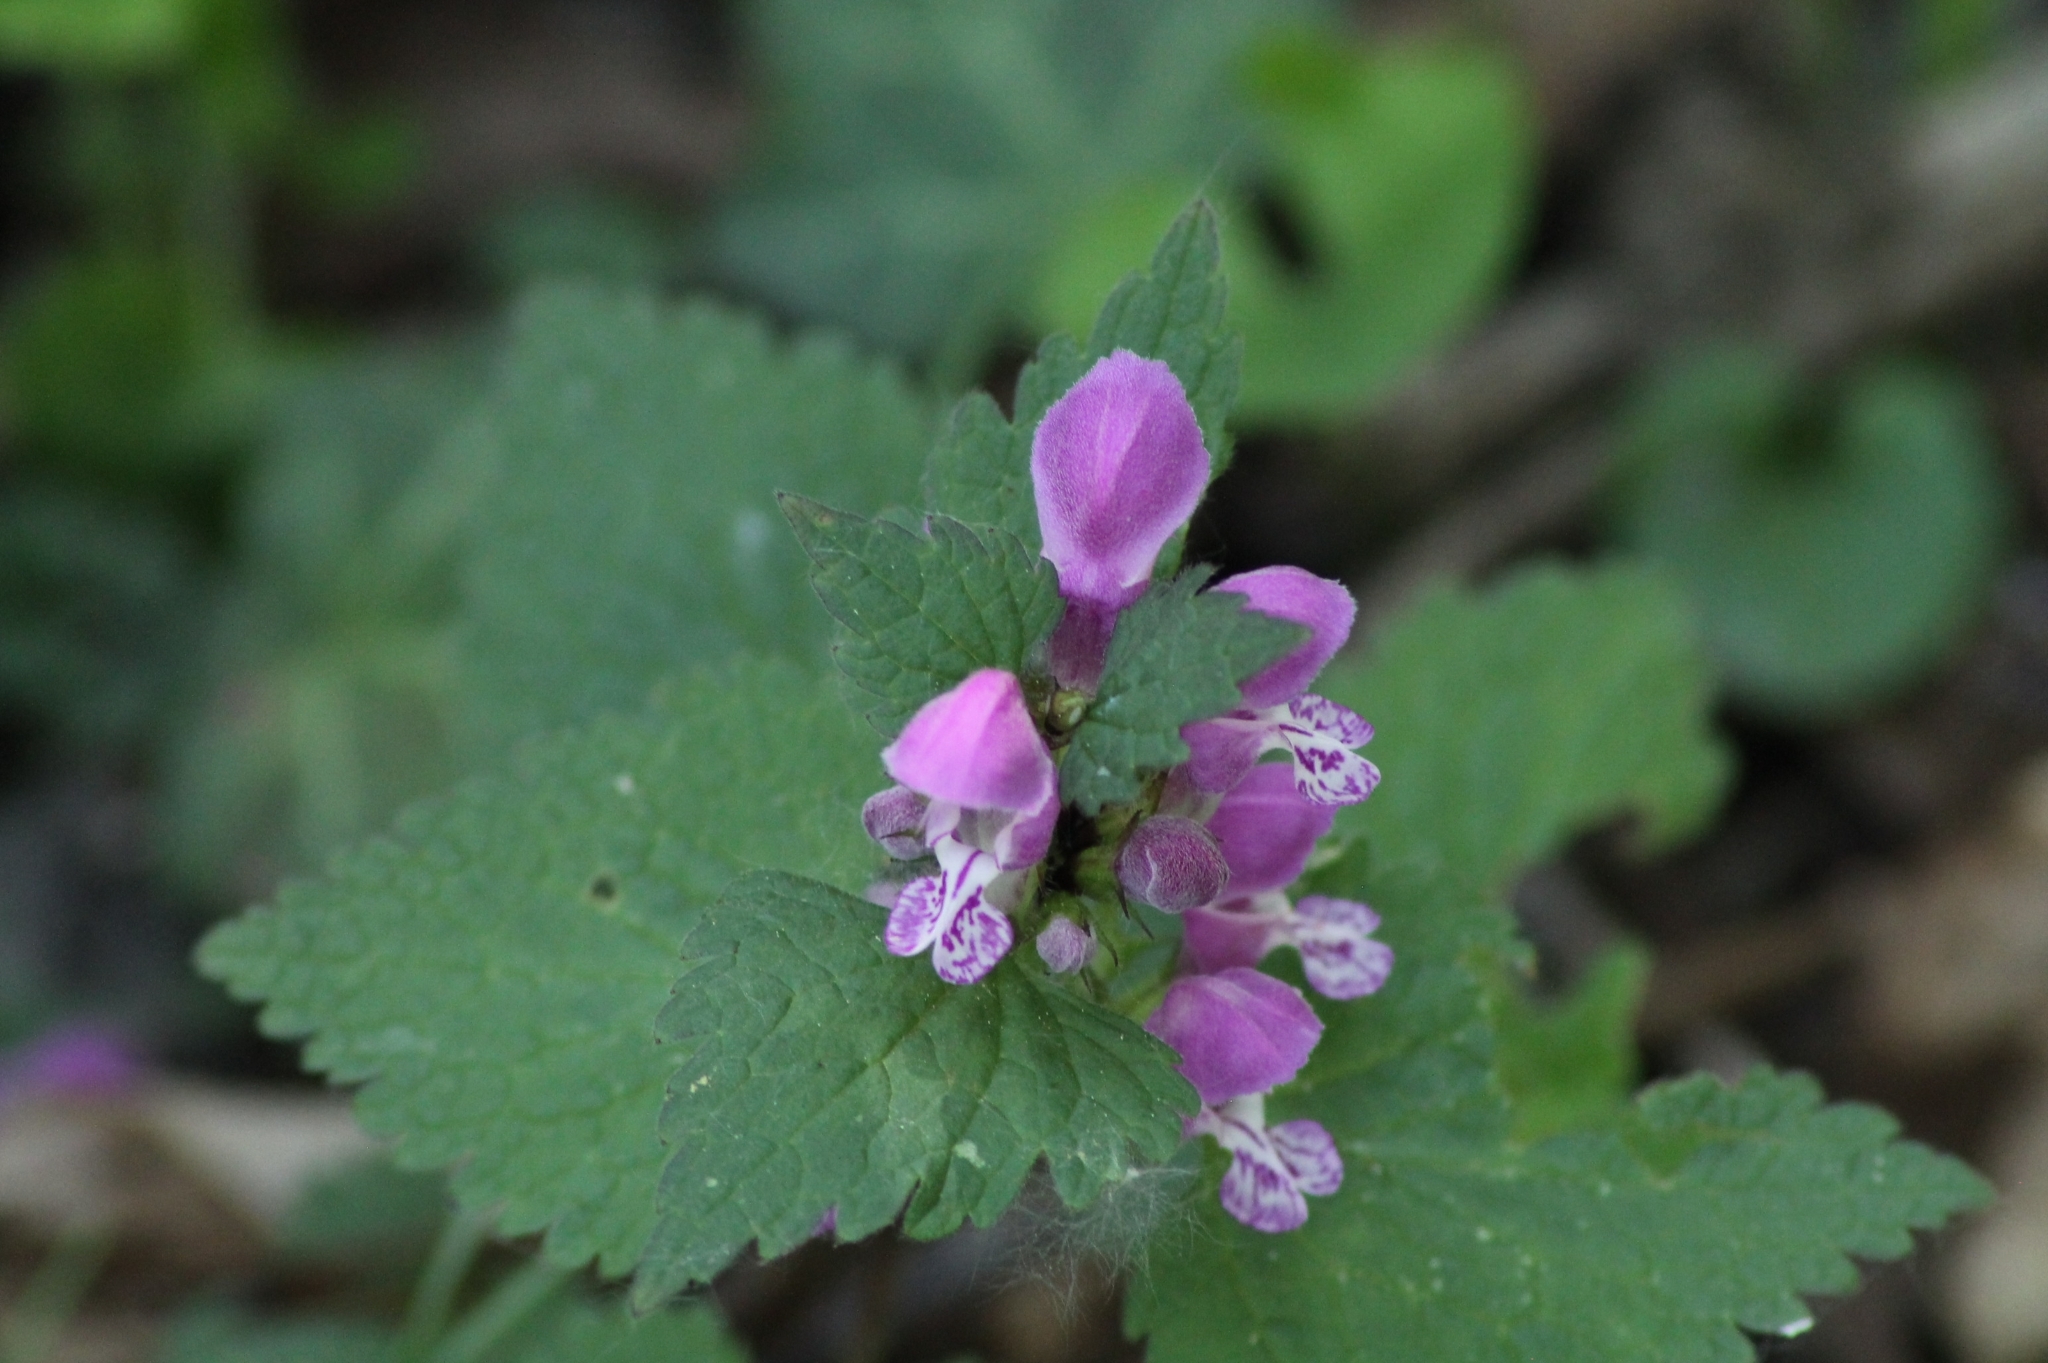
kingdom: Plantae
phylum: Tracheophyta
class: Magnoliopsida
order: Lamiales
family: Lamiaceae
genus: Lamium
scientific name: Lamium maculatum
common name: Spotted dead-nettle
